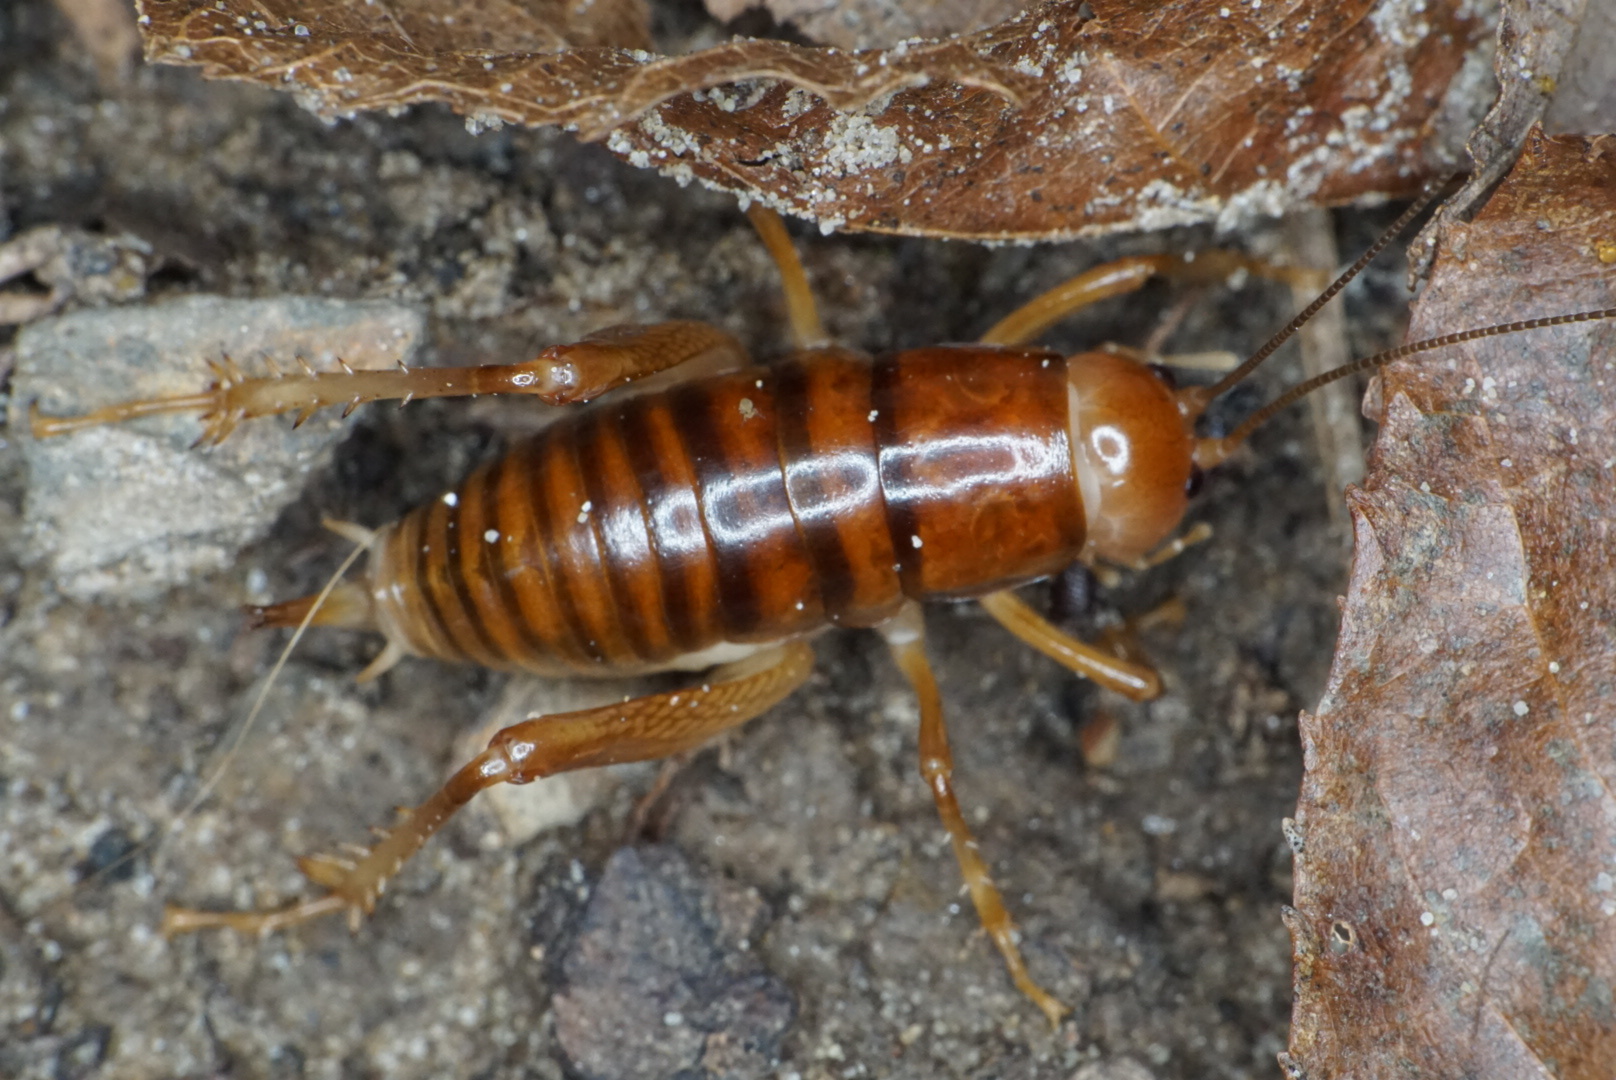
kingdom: Animalia
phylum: Arthropoda
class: Insecta
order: Orthoptera
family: Rhaphidophoridae
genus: Phrixocnemis
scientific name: Phrixocnemis truculentus
